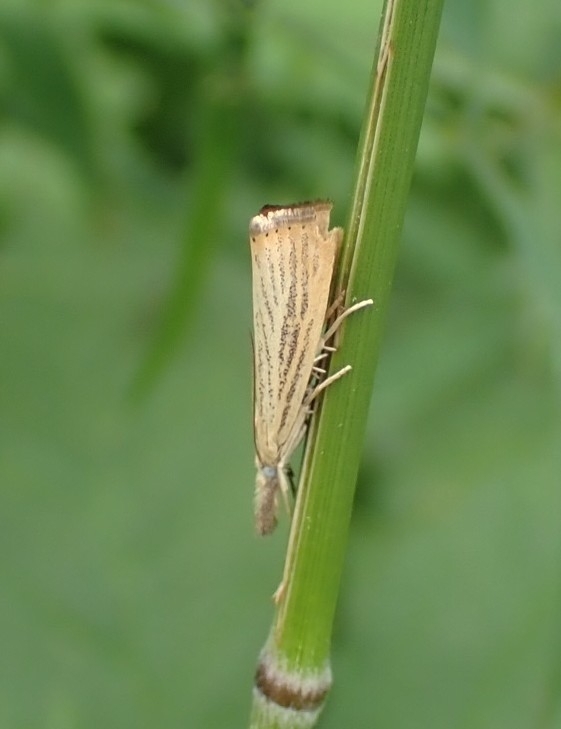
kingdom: Animalia
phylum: Arthropoda
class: Insecta
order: Lepidoptera
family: Crambidae
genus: Agriphila
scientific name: Agriphila straminella
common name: Straw grass-veneer
